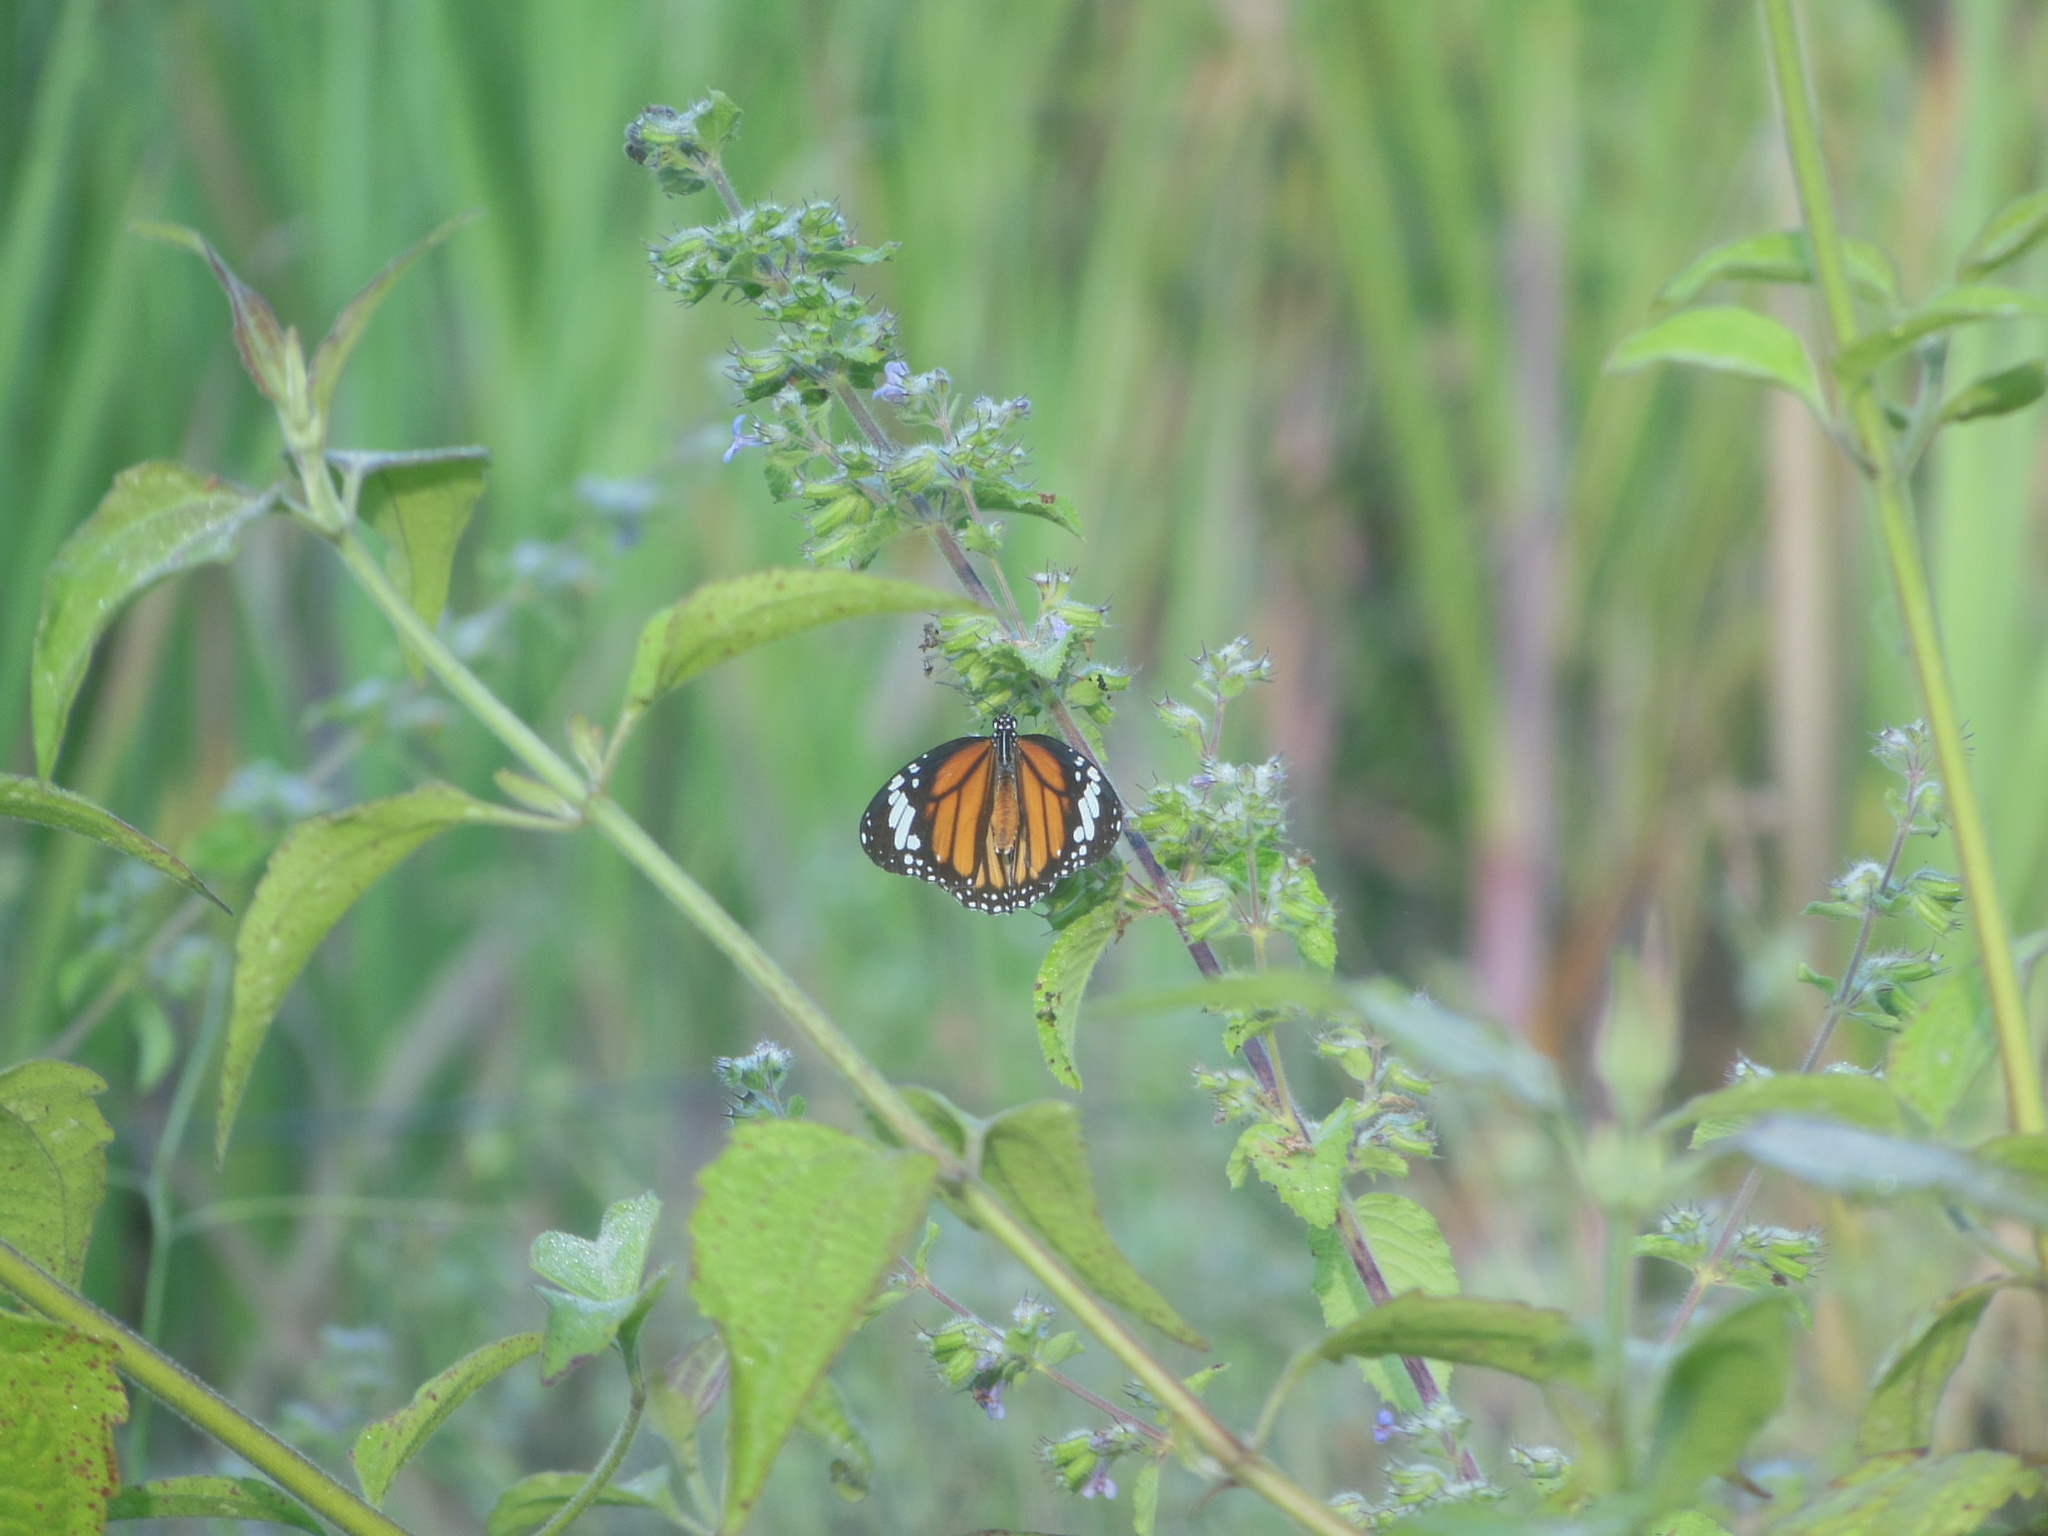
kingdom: Animalia
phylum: Arthropoda
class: Insecta
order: Lepidoptera
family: Nymphalidae
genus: Danaus
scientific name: Danaus genutia
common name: Common tiger butterfly
